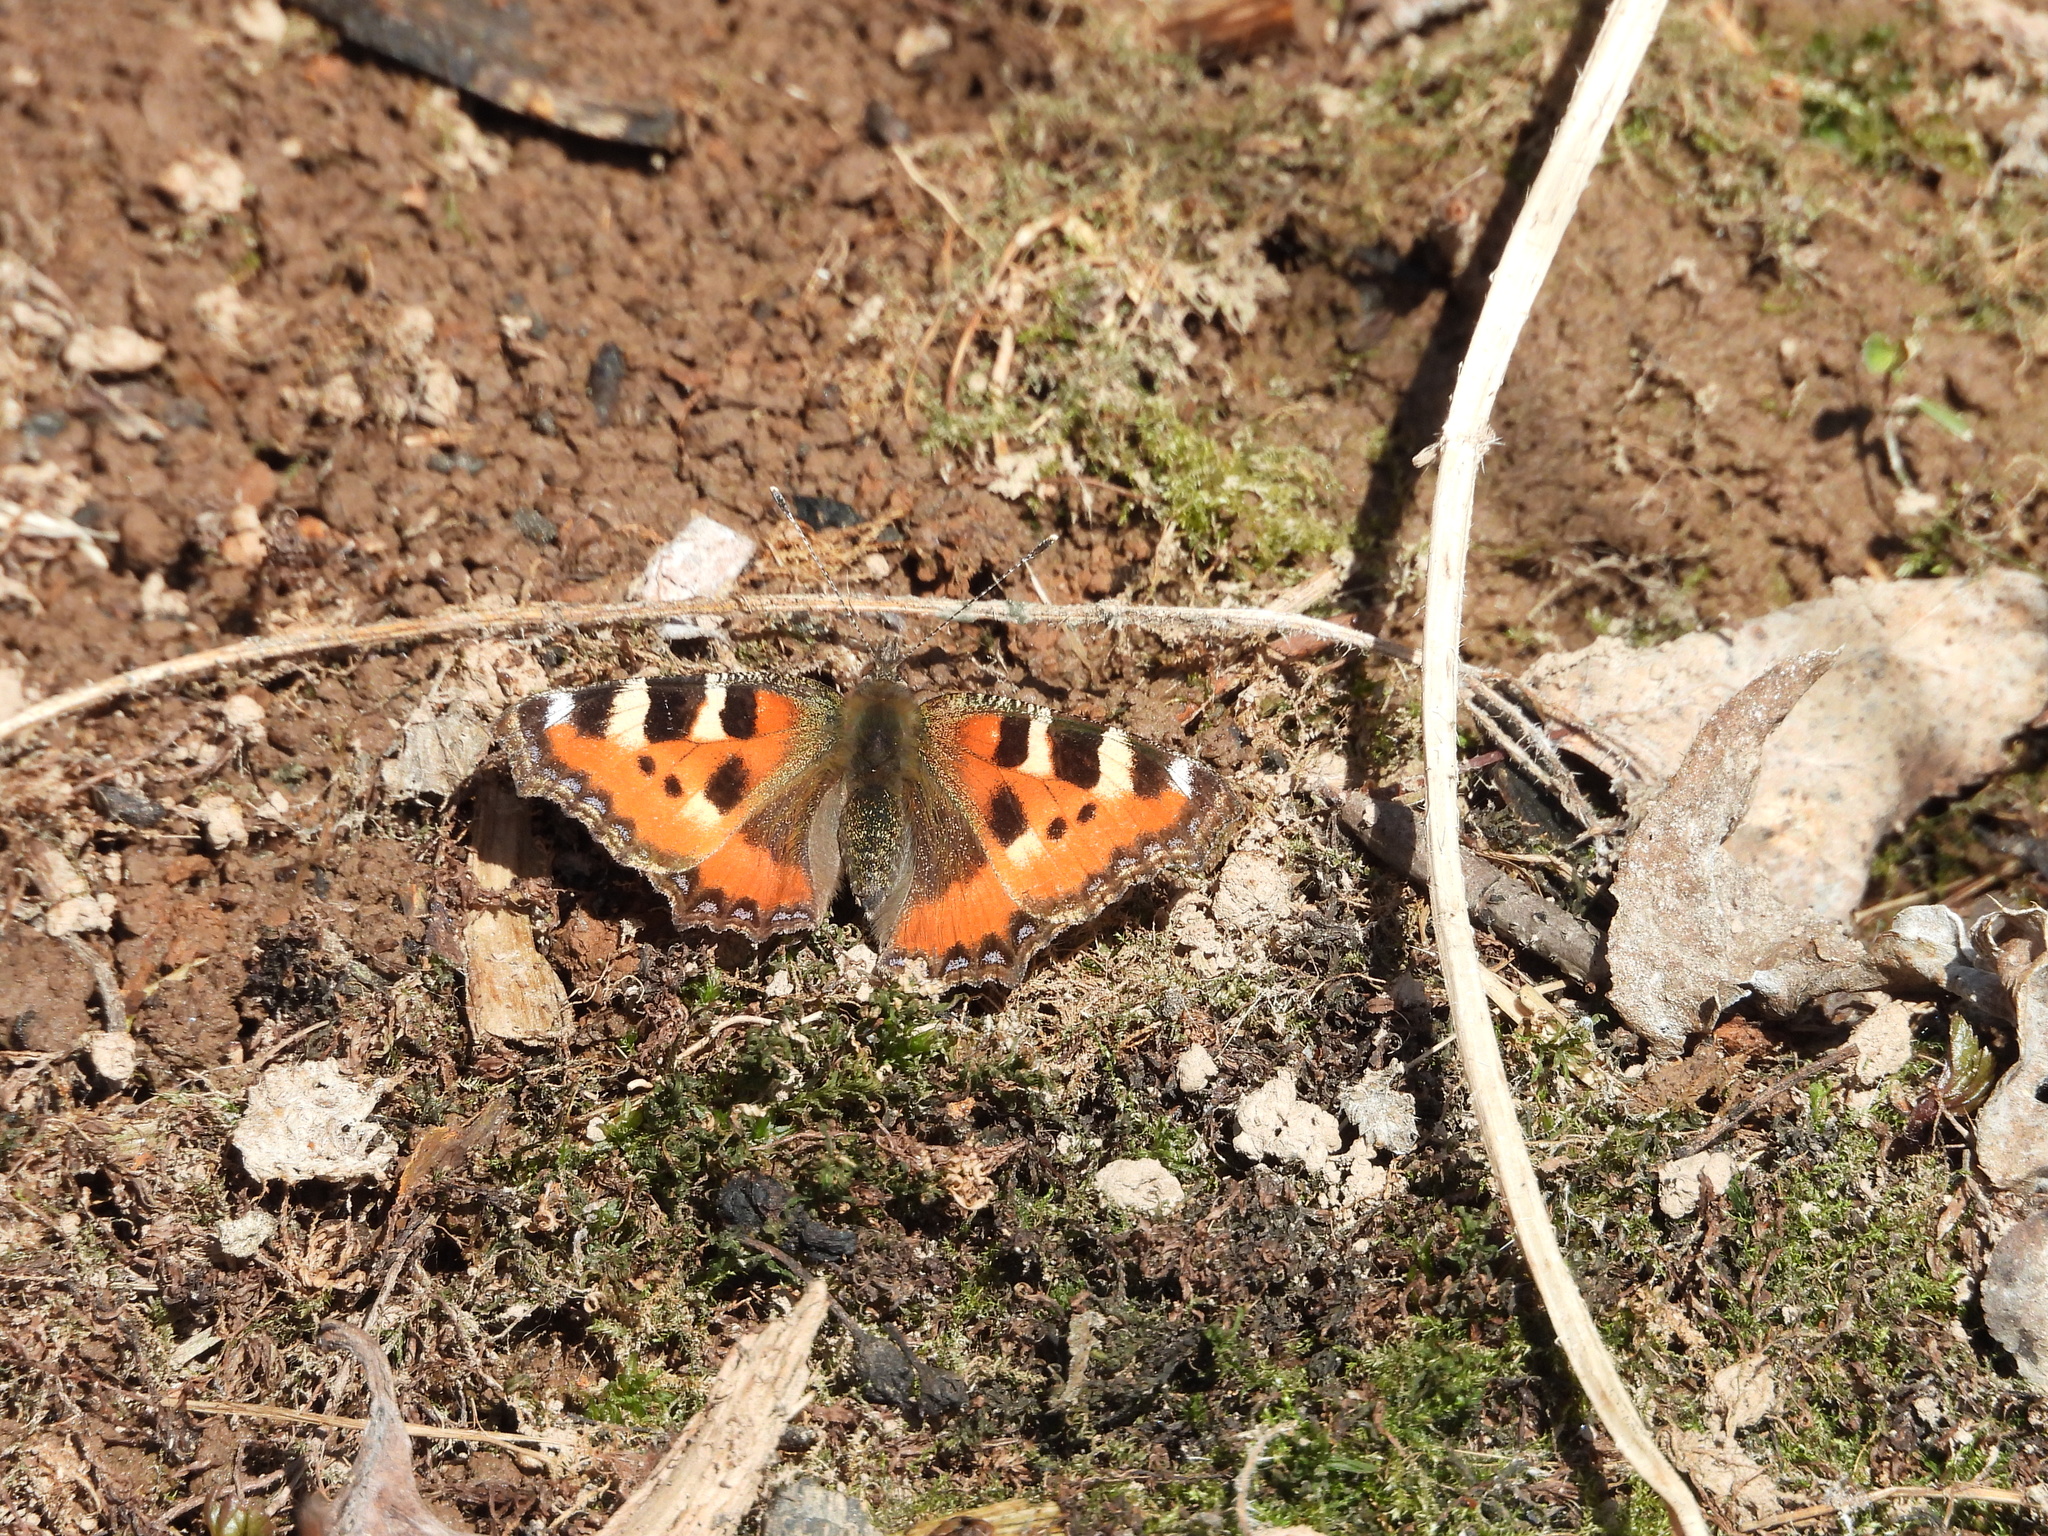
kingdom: Animalia
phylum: Arthropoda
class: Insecta
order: Lepidoptera
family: Nymphalidae
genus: Aglais
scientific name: Aglais urticae
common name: Small tortoiseshell
